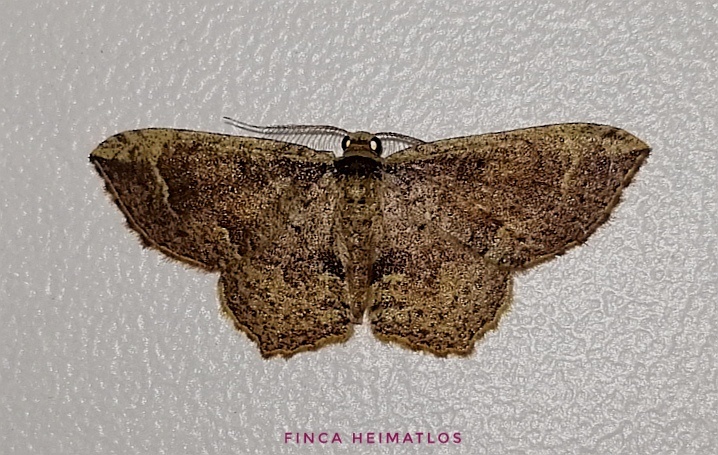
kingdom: Animalia
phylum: Arthropoda
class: Insecta
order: Lepidoptera
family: Geometridae
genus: Eois
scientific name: Eois diversicosta
